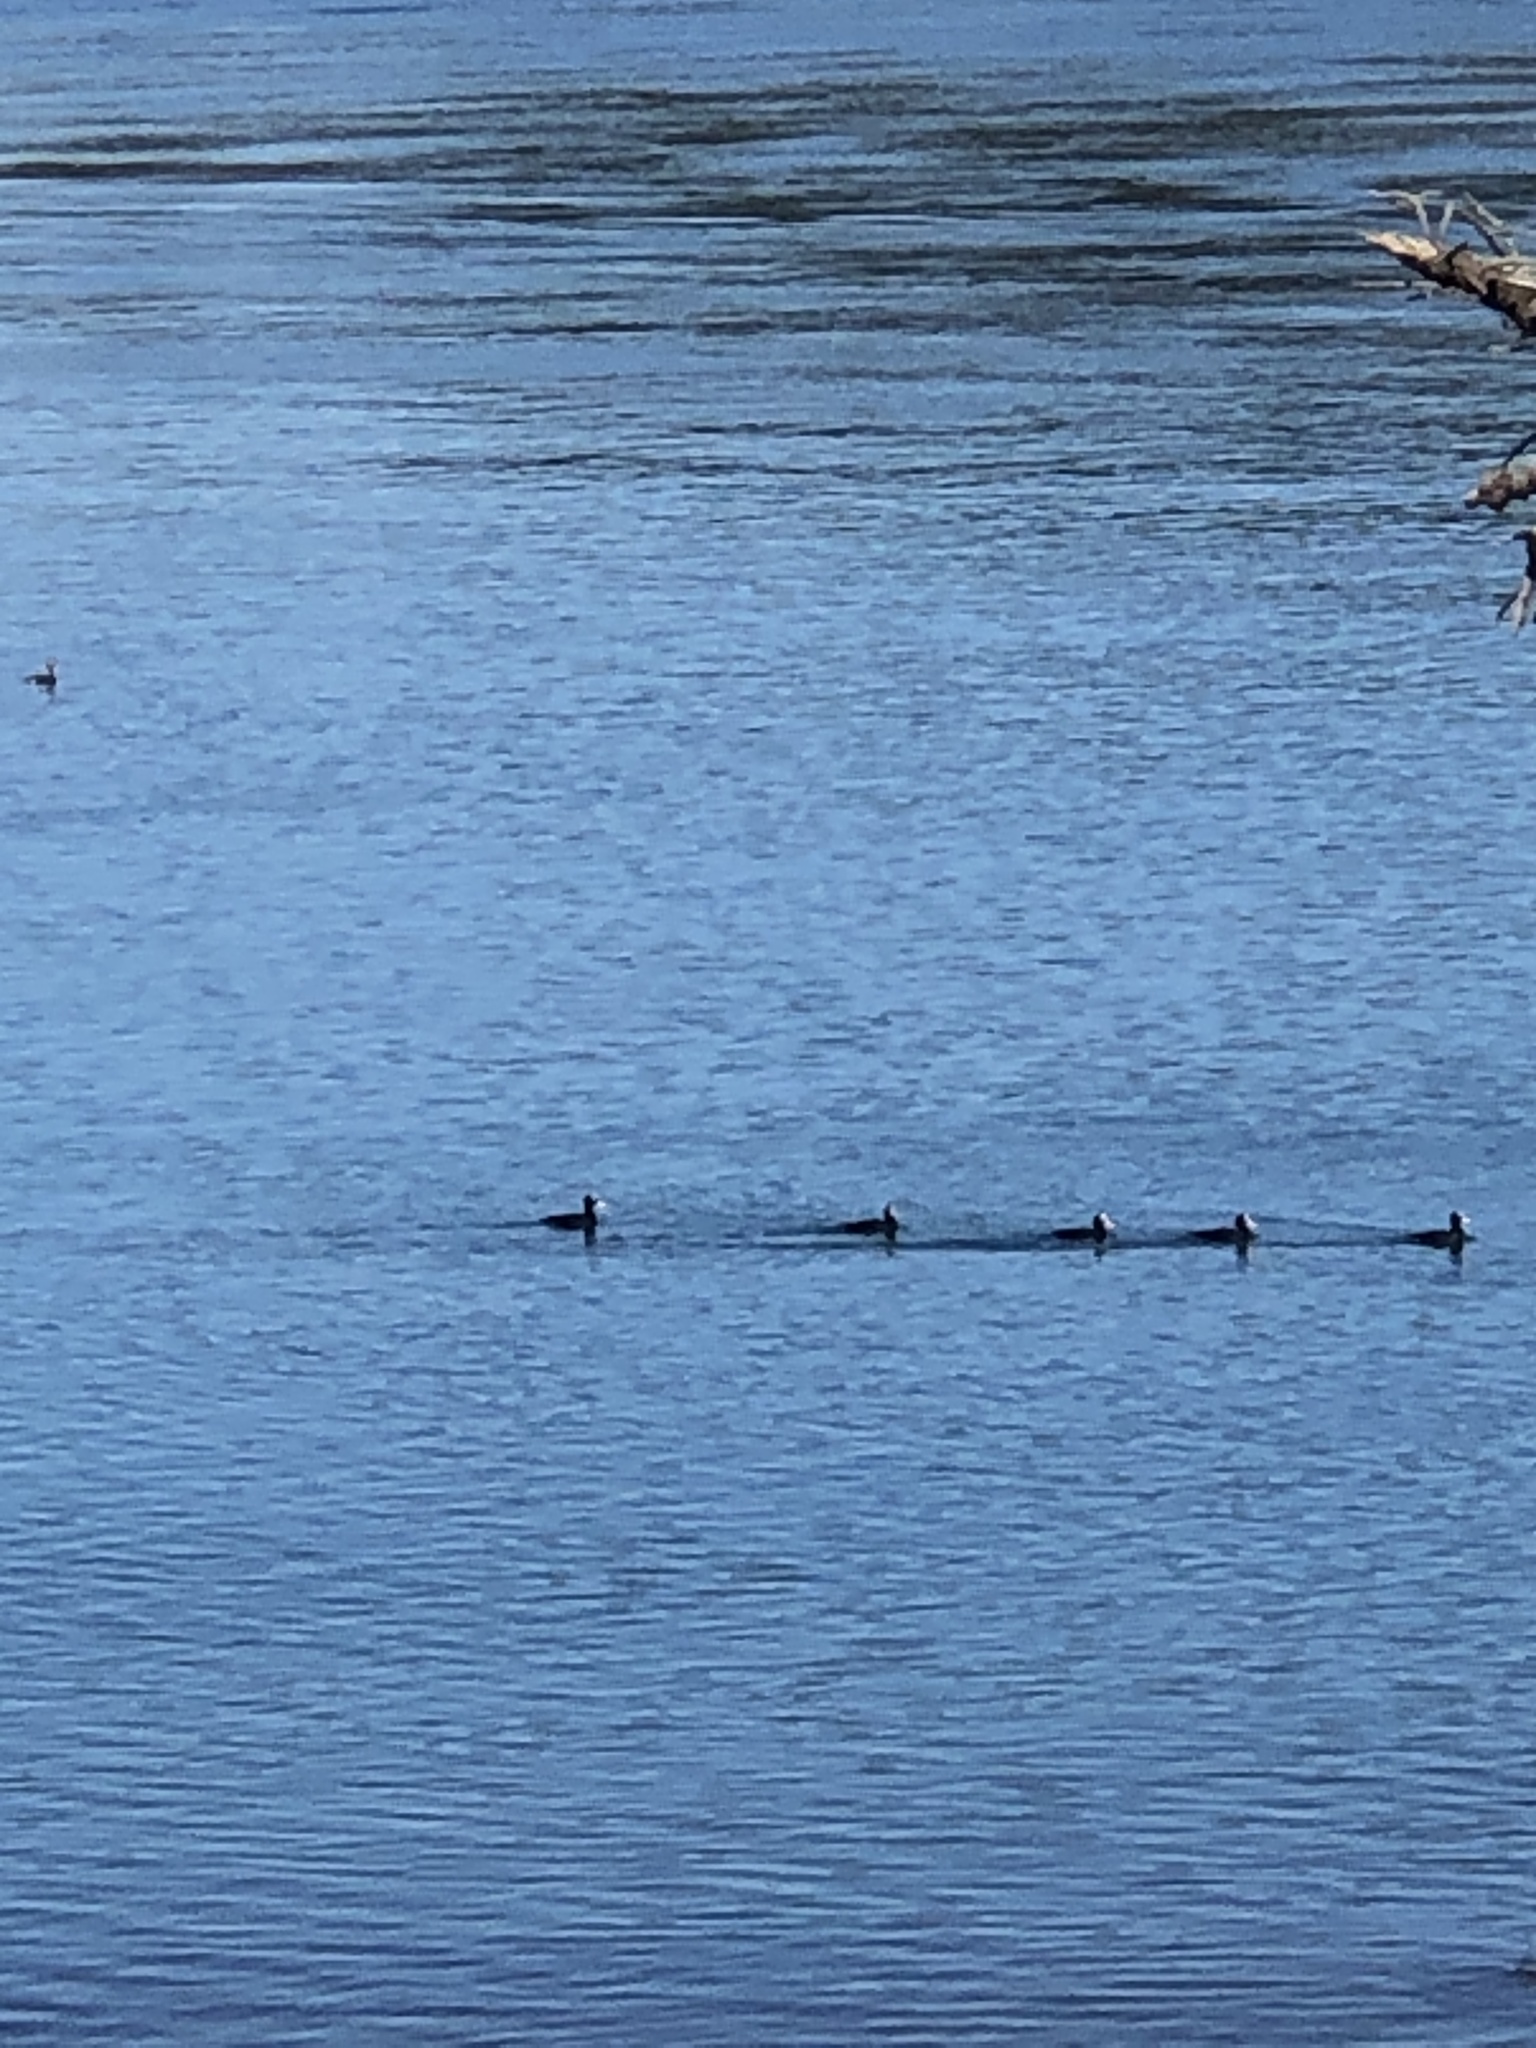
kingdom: Animalia
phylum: Chordata
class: Aves
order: Anseriformes
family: Anatidae
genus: Melanitta
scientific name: Melanitta perspicillata
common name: Surf scoter
